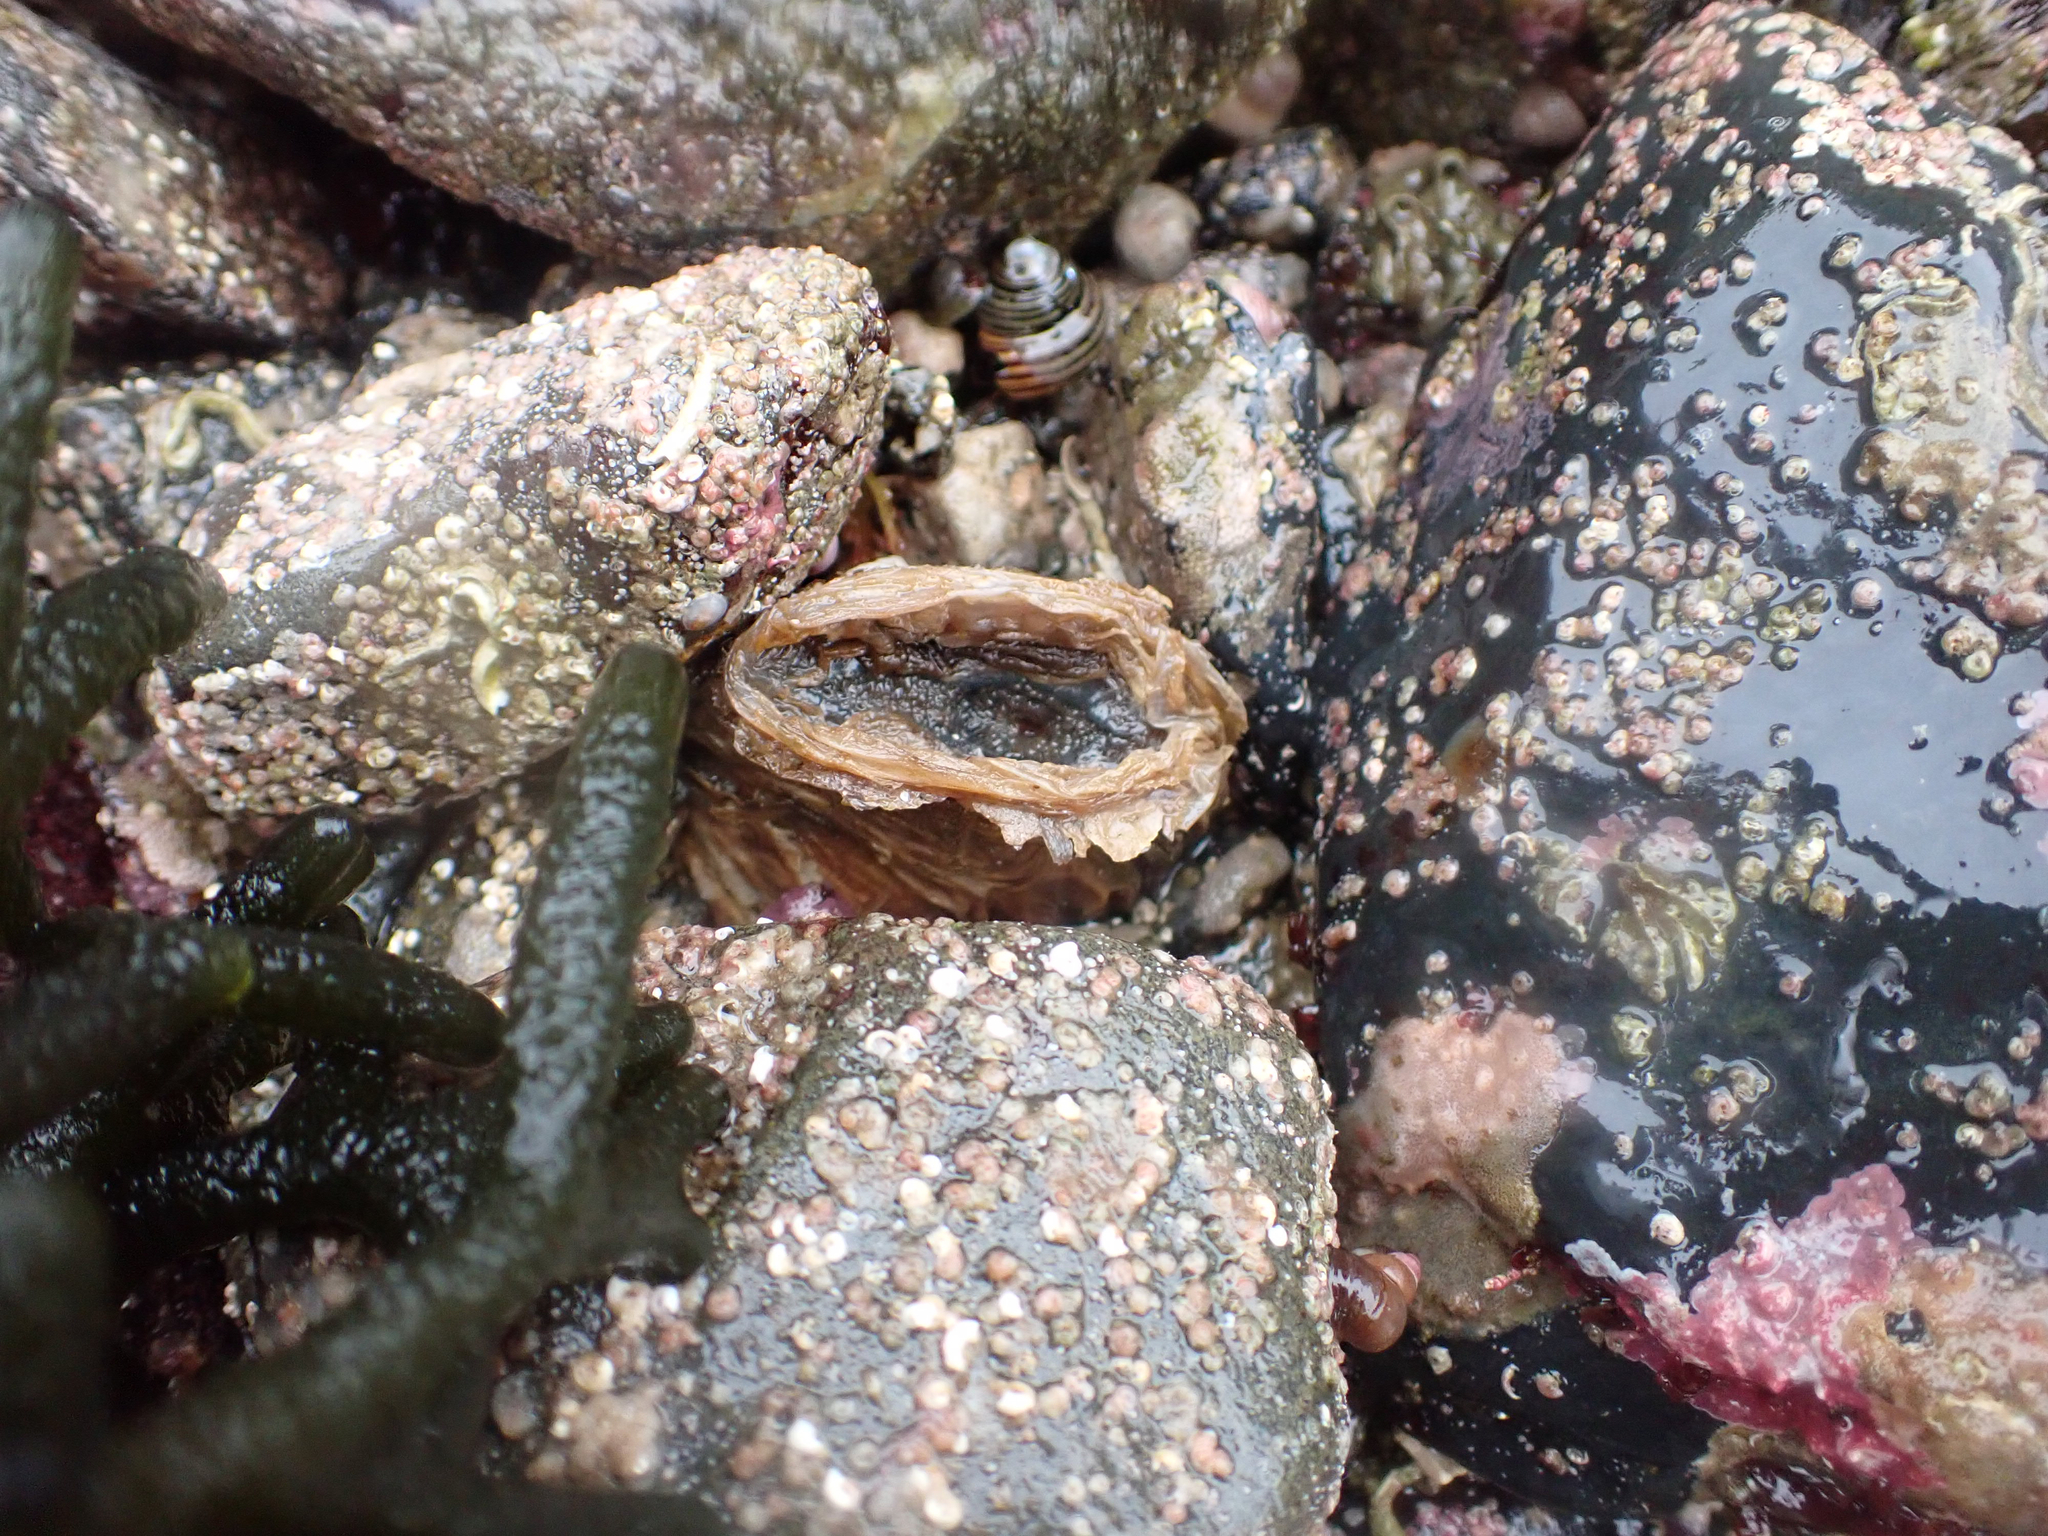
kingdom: Animalia
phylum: Mollusca
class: Bivalvia
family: Lyonsiidae
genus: Entodesma
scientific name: Entodesma navicula
